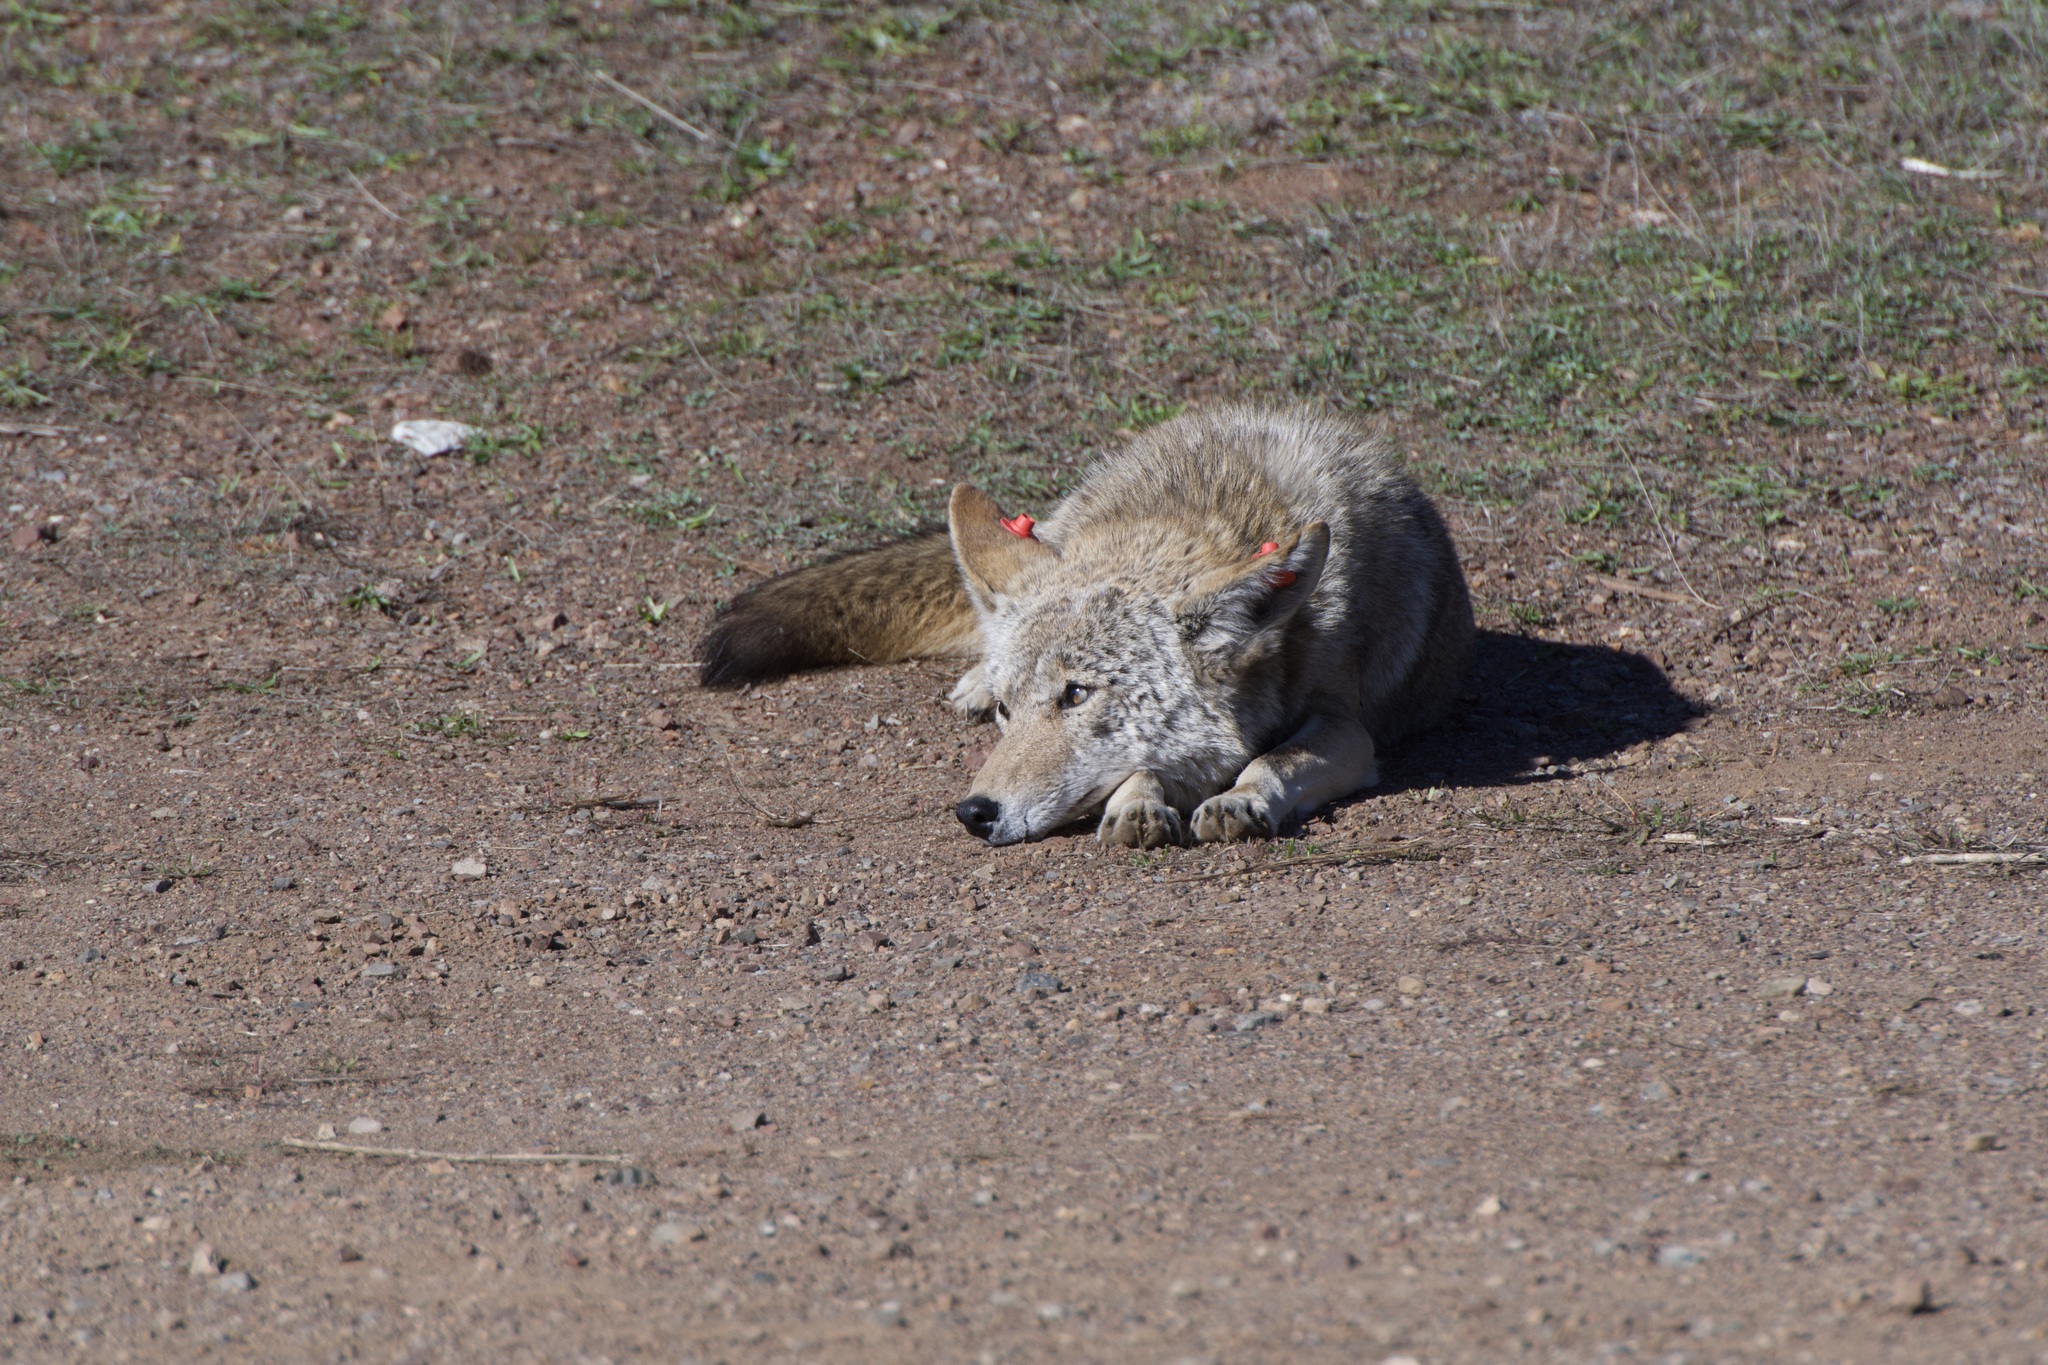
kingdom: Animalia
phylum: Chordata
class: Mammalia
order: Carnivora
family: Canidae
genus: Canis
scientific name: Canis latrans
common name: Coyote
